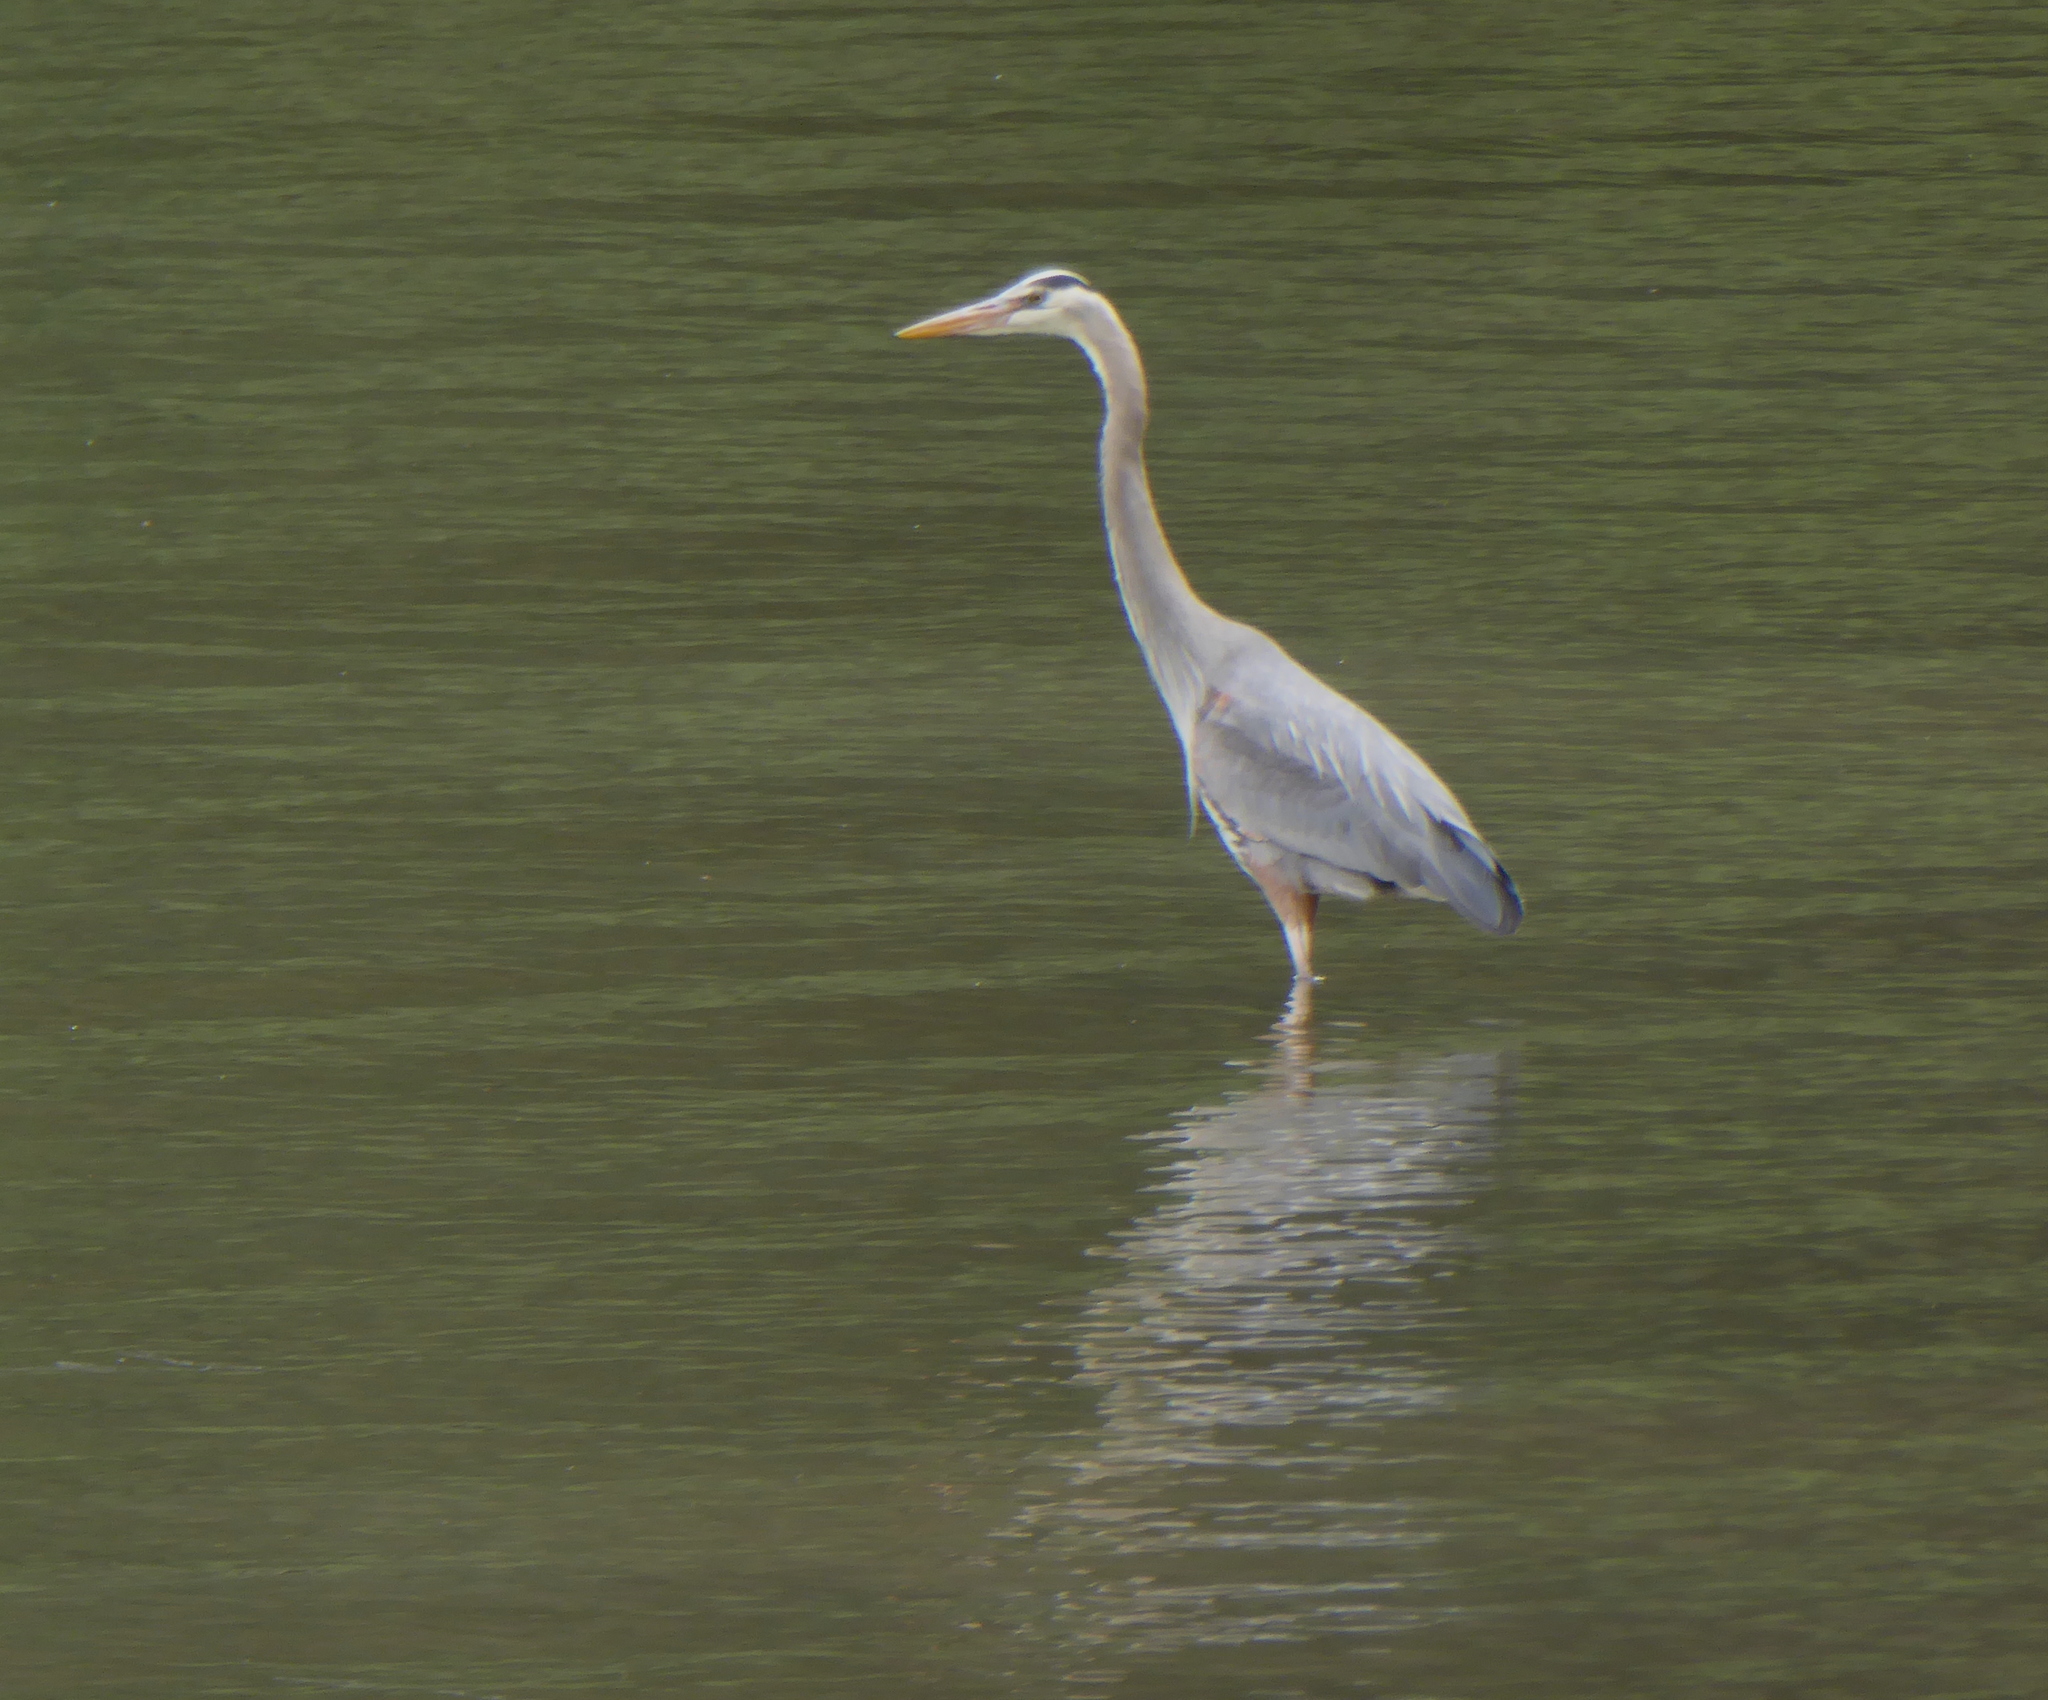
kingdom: Animalia
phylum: Chordata
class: Aves
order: Pelecaniformes
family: Ardeidae
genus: Ardea
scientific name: Ardea herodias
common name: Great blue heron
